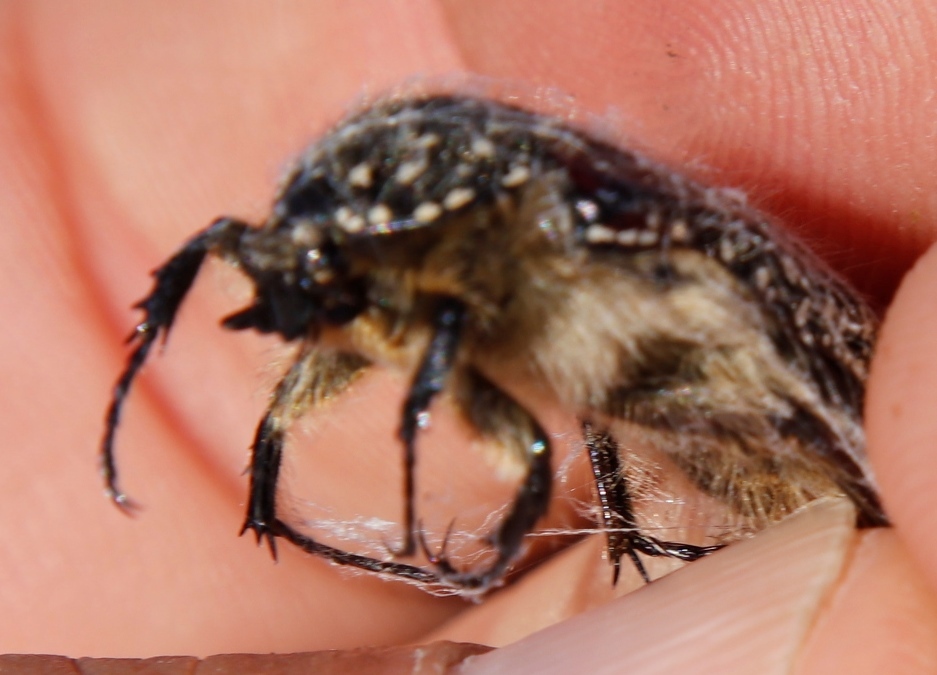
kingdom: Animalia
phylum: Arthropoda
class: Insecta
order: Coleoptera
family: Scarabaeidae
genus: Trichostetha
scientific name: Trichostetha bicolor
